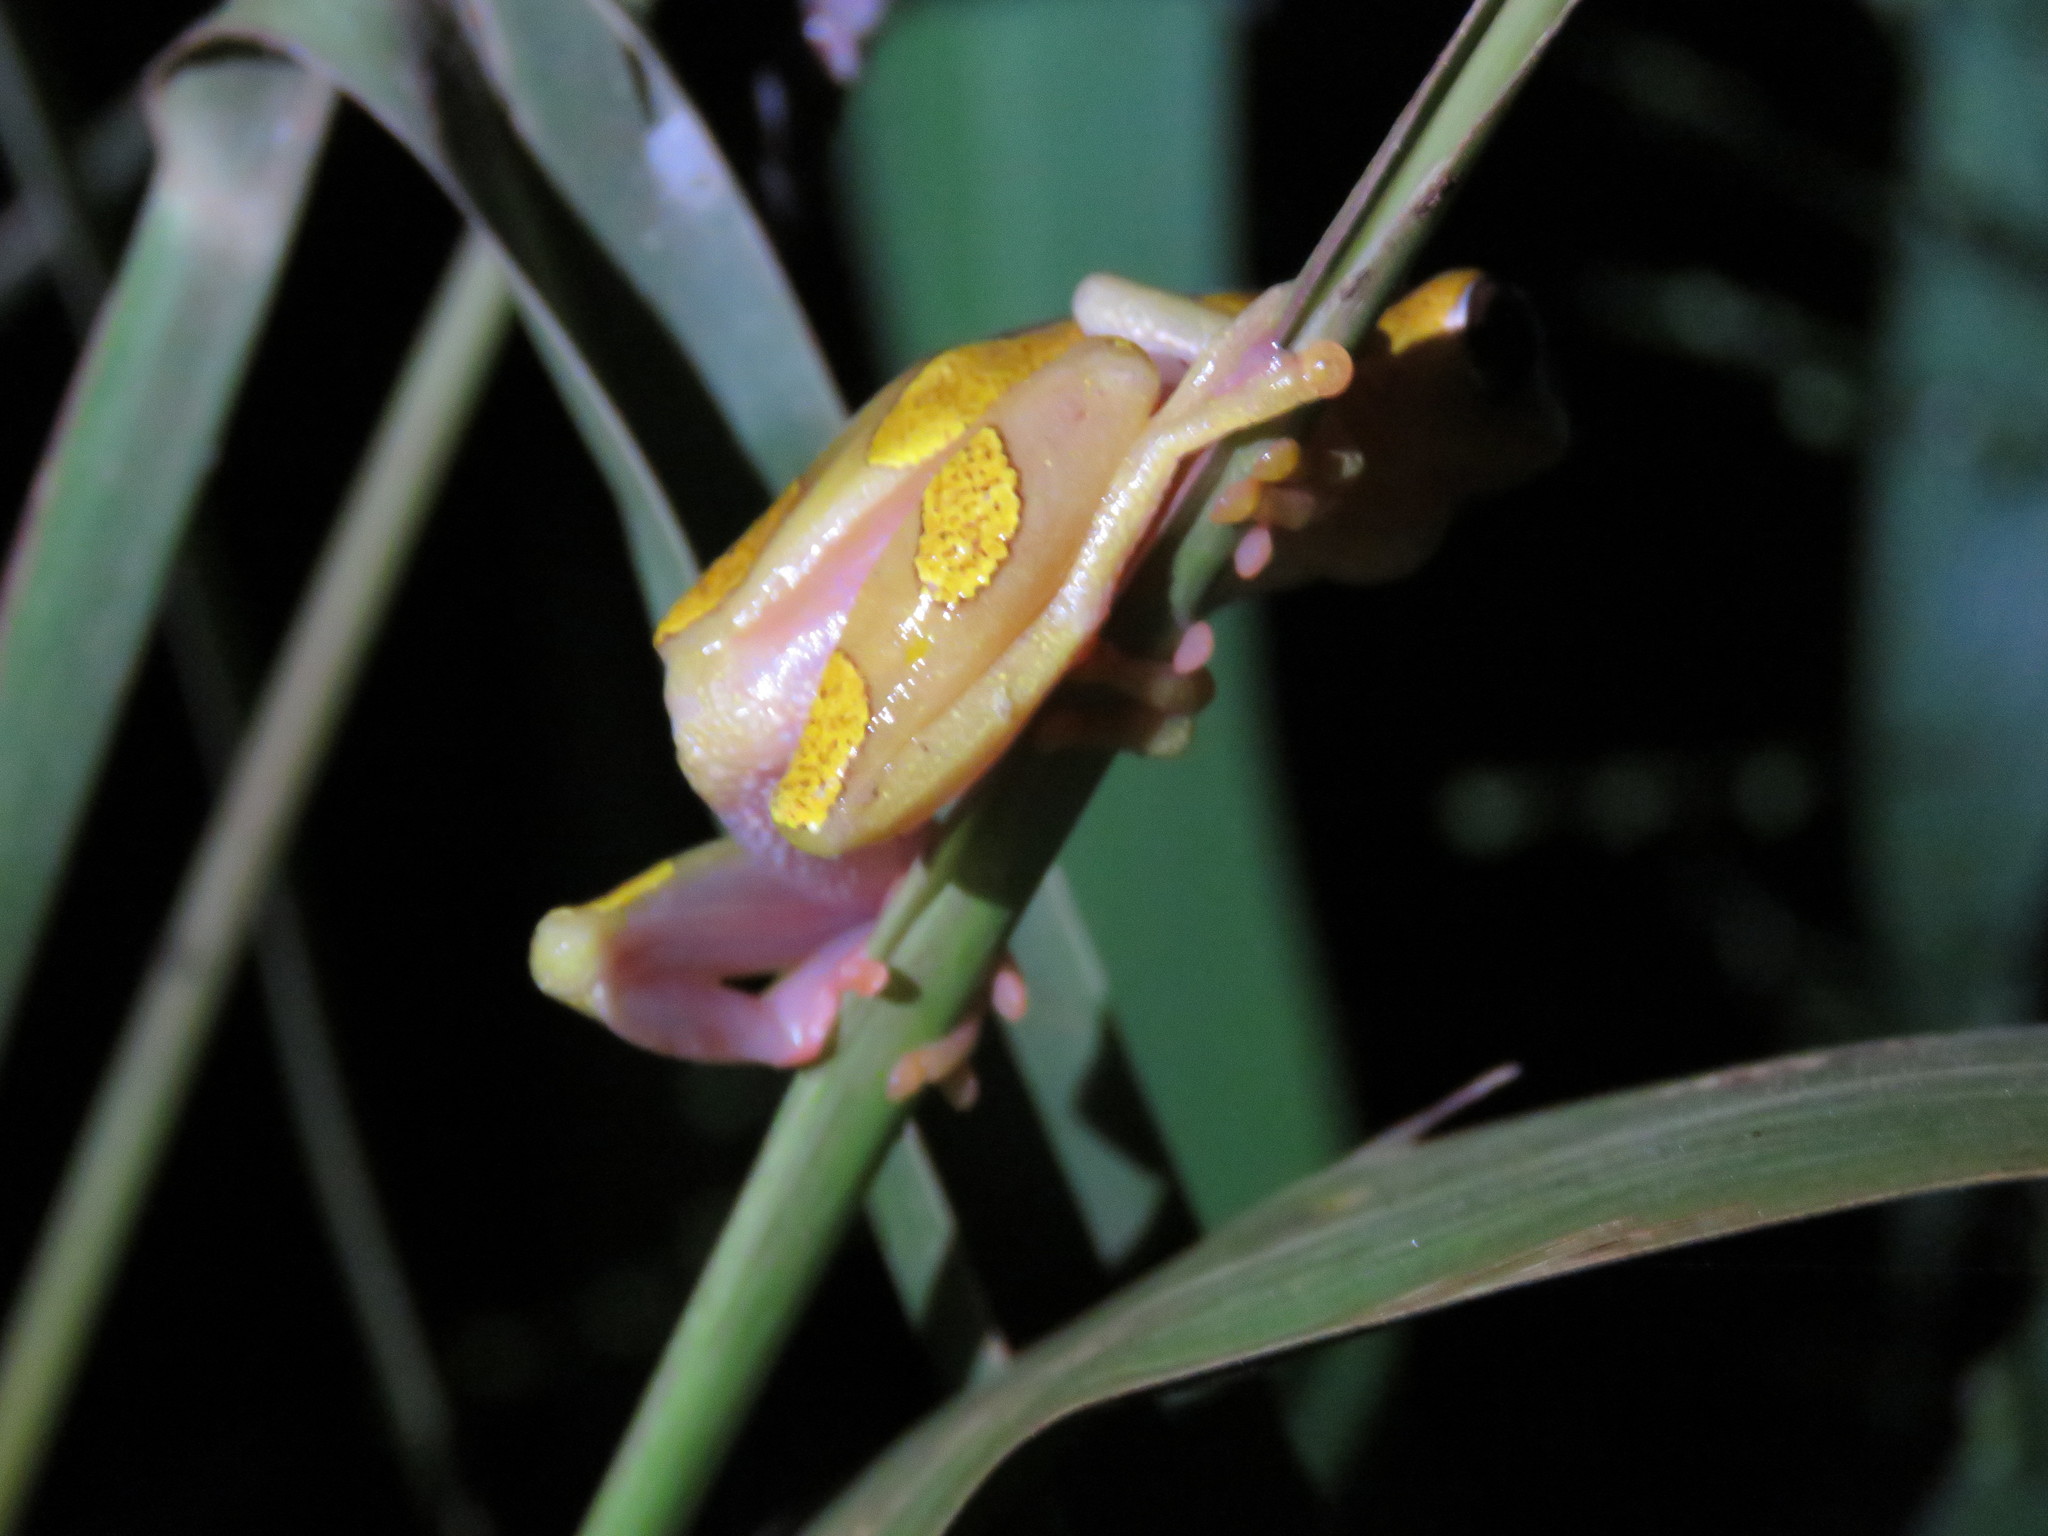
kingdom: Animalia
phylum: Chordata
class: Amphibia
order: Anura
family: Hylidae
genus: Dendropsophus
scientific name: Dendropsophus arndti
